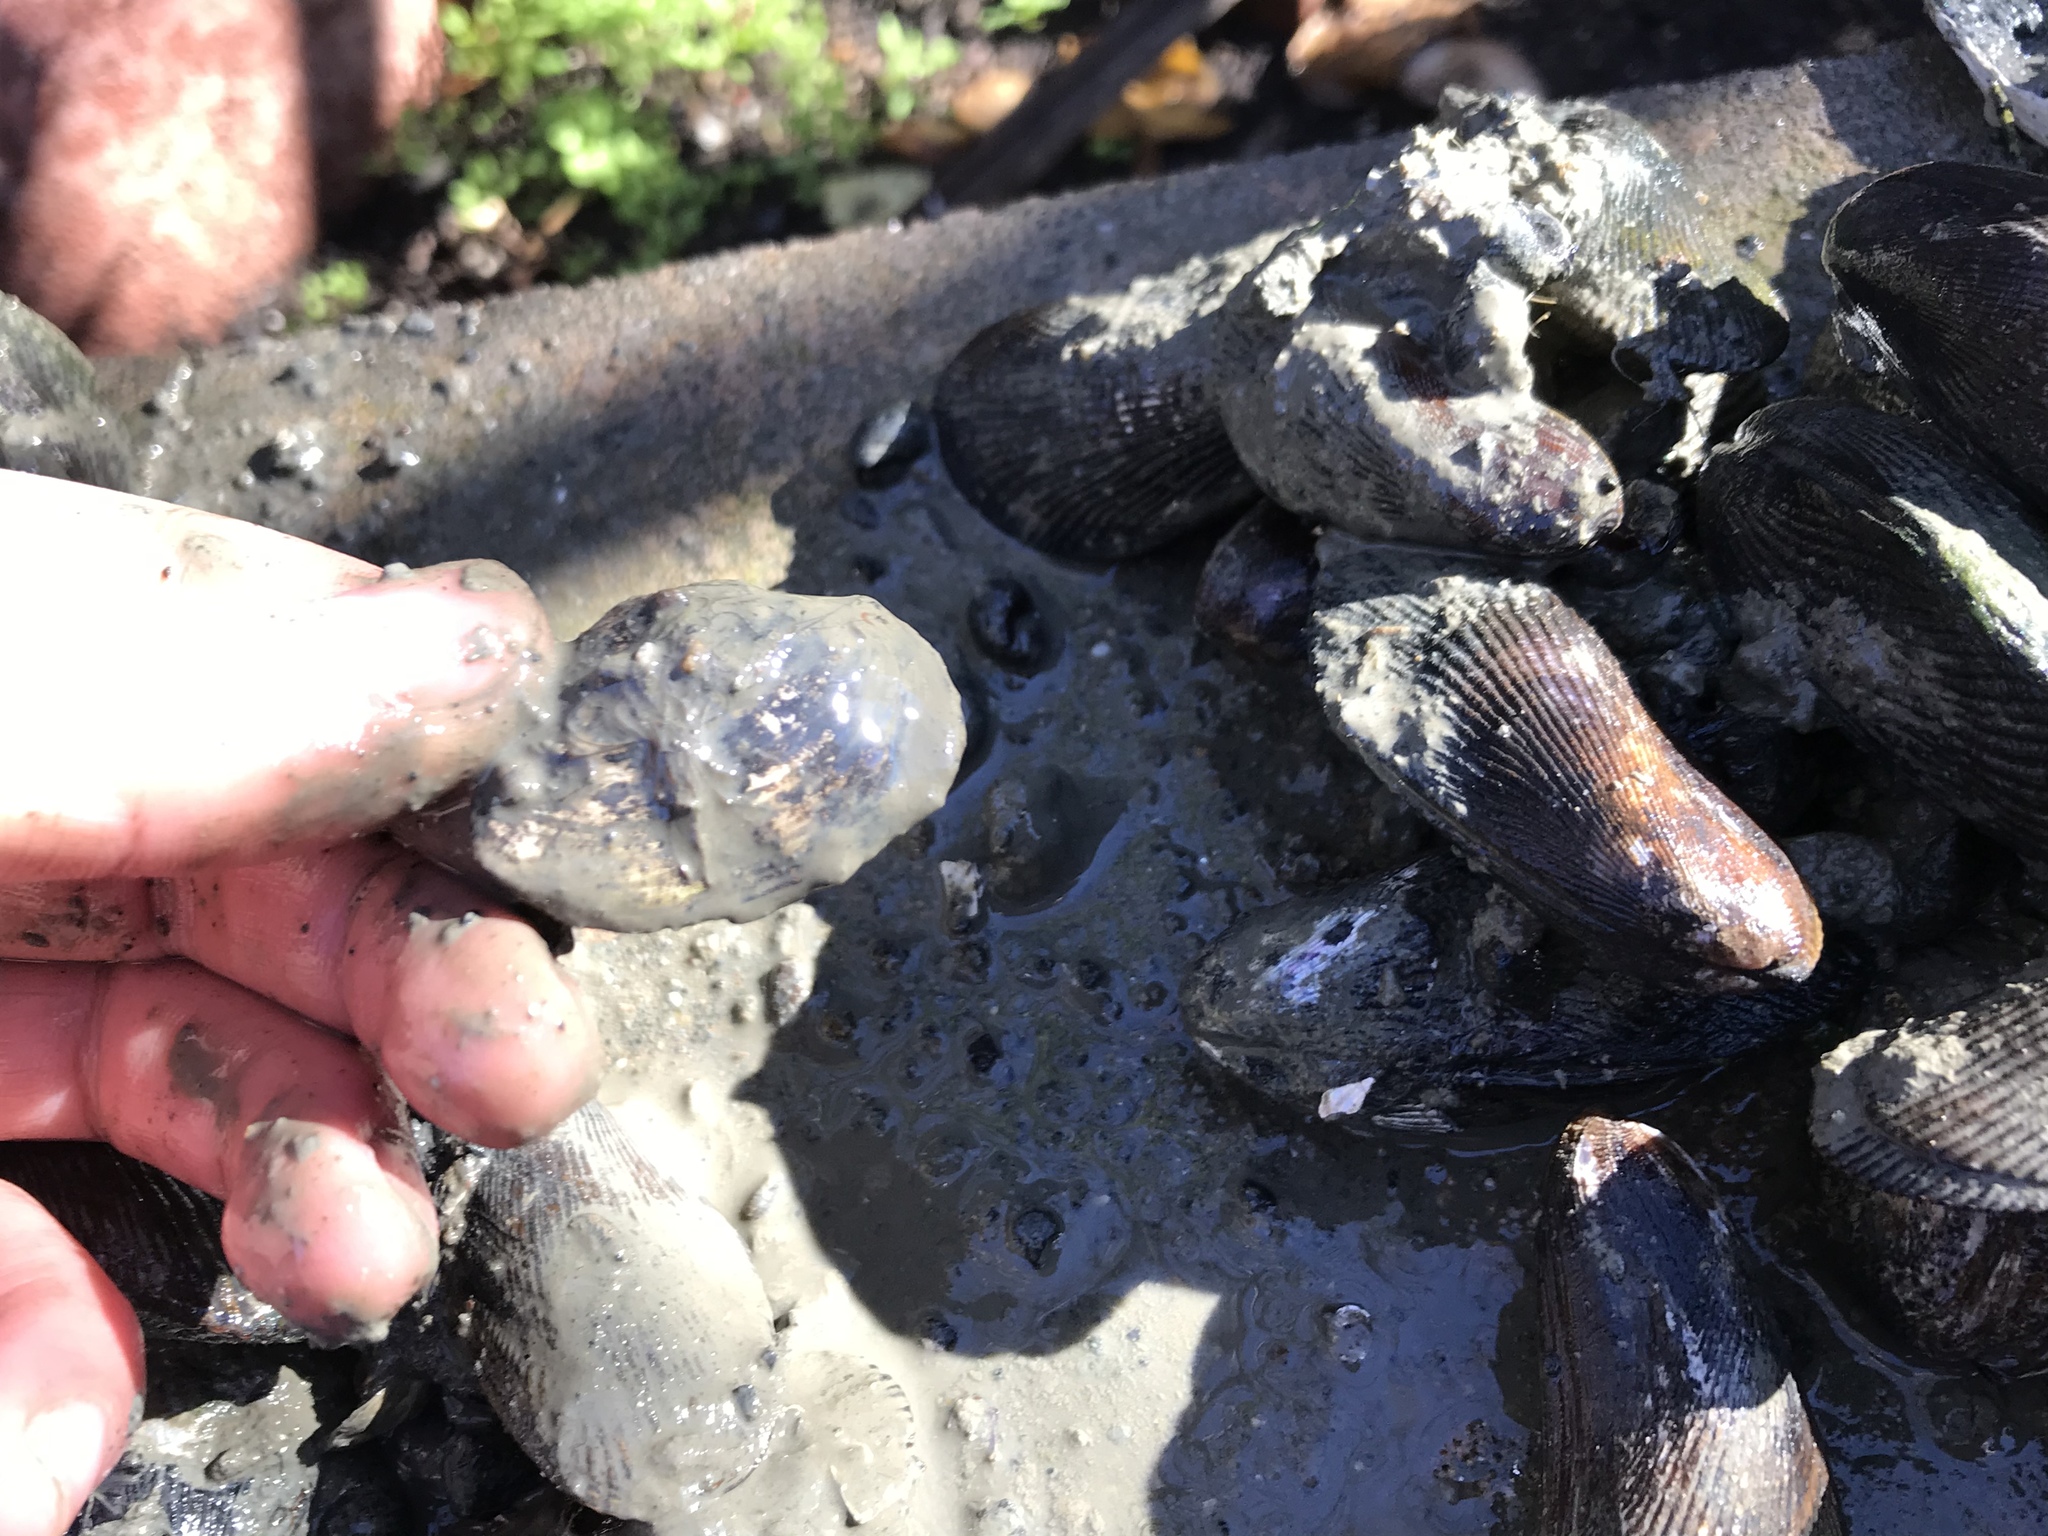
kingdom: Animalia
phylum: Mollusca
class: Bivalvia
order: Myida
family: Myidae
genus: Mya
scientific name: Mya arenaria
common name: Soft-shelled clam
